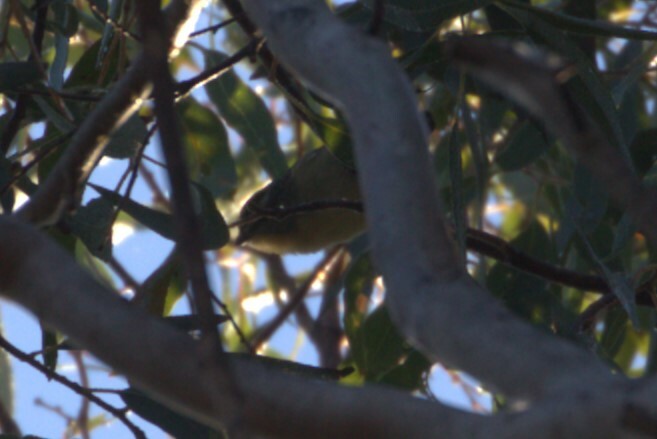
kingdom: Animalia
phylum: Chordata
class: Aves
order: Passeriformes
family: Pardalotidae
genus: Pardalotus
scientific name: Pardalotus punctatus
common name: Spotted pardalote
